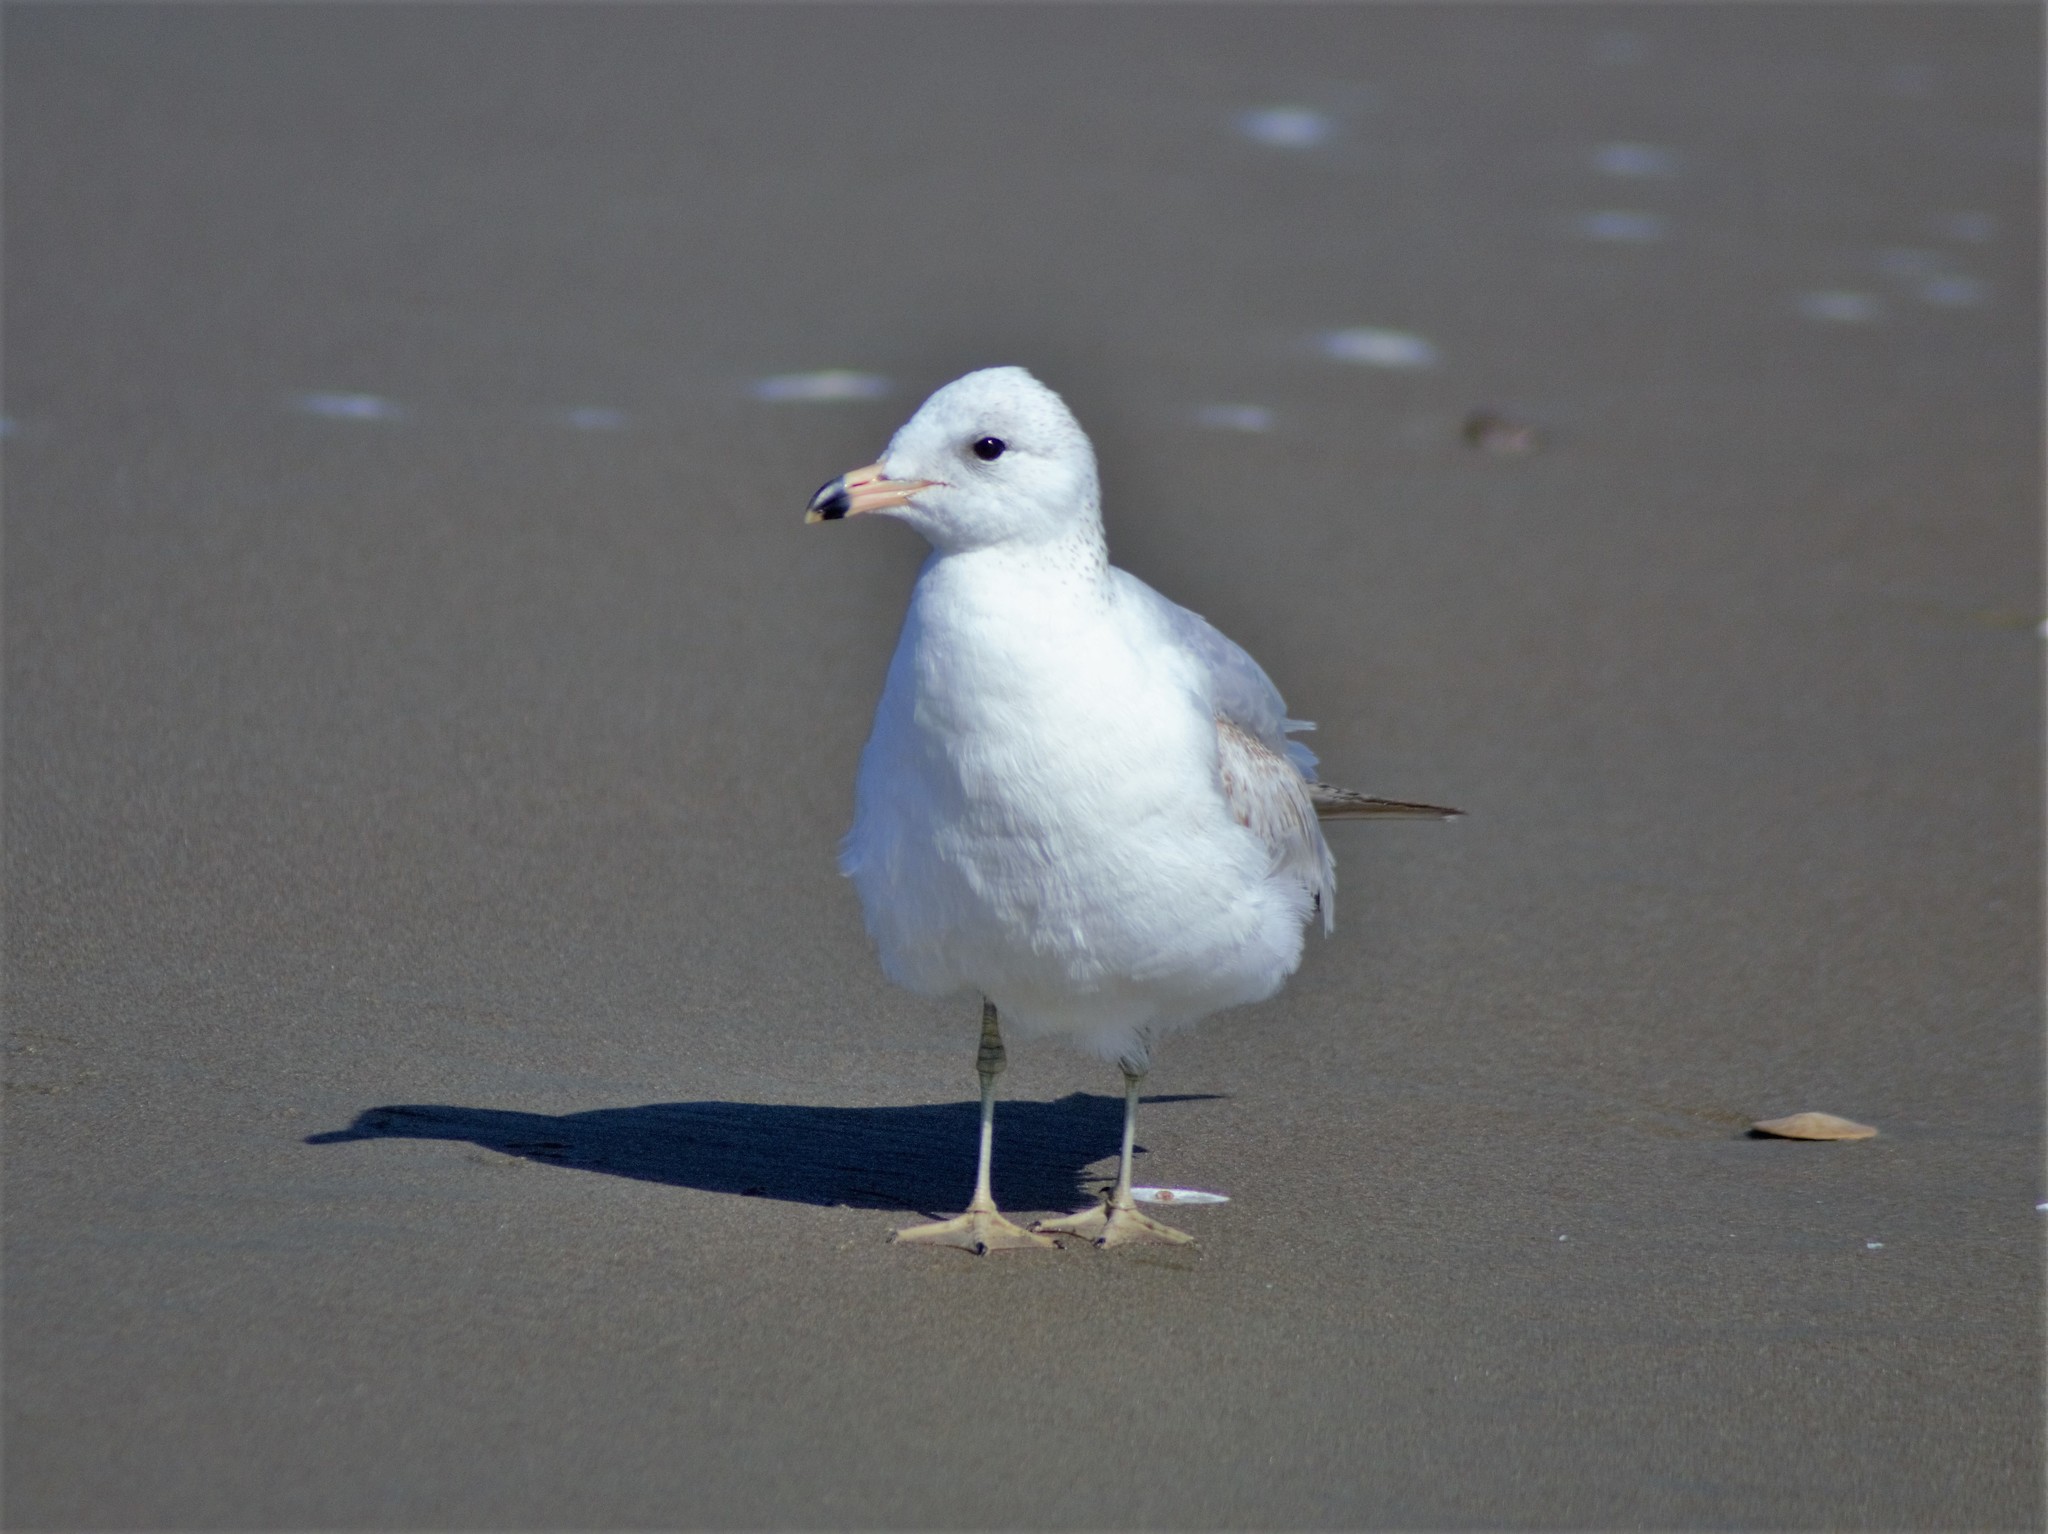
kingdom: Animalia
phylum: Chordata
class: Aves
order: Charadriiformes
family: Laridae
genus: Larus
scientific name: Larus delawarensis
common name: Ring-billed gull
